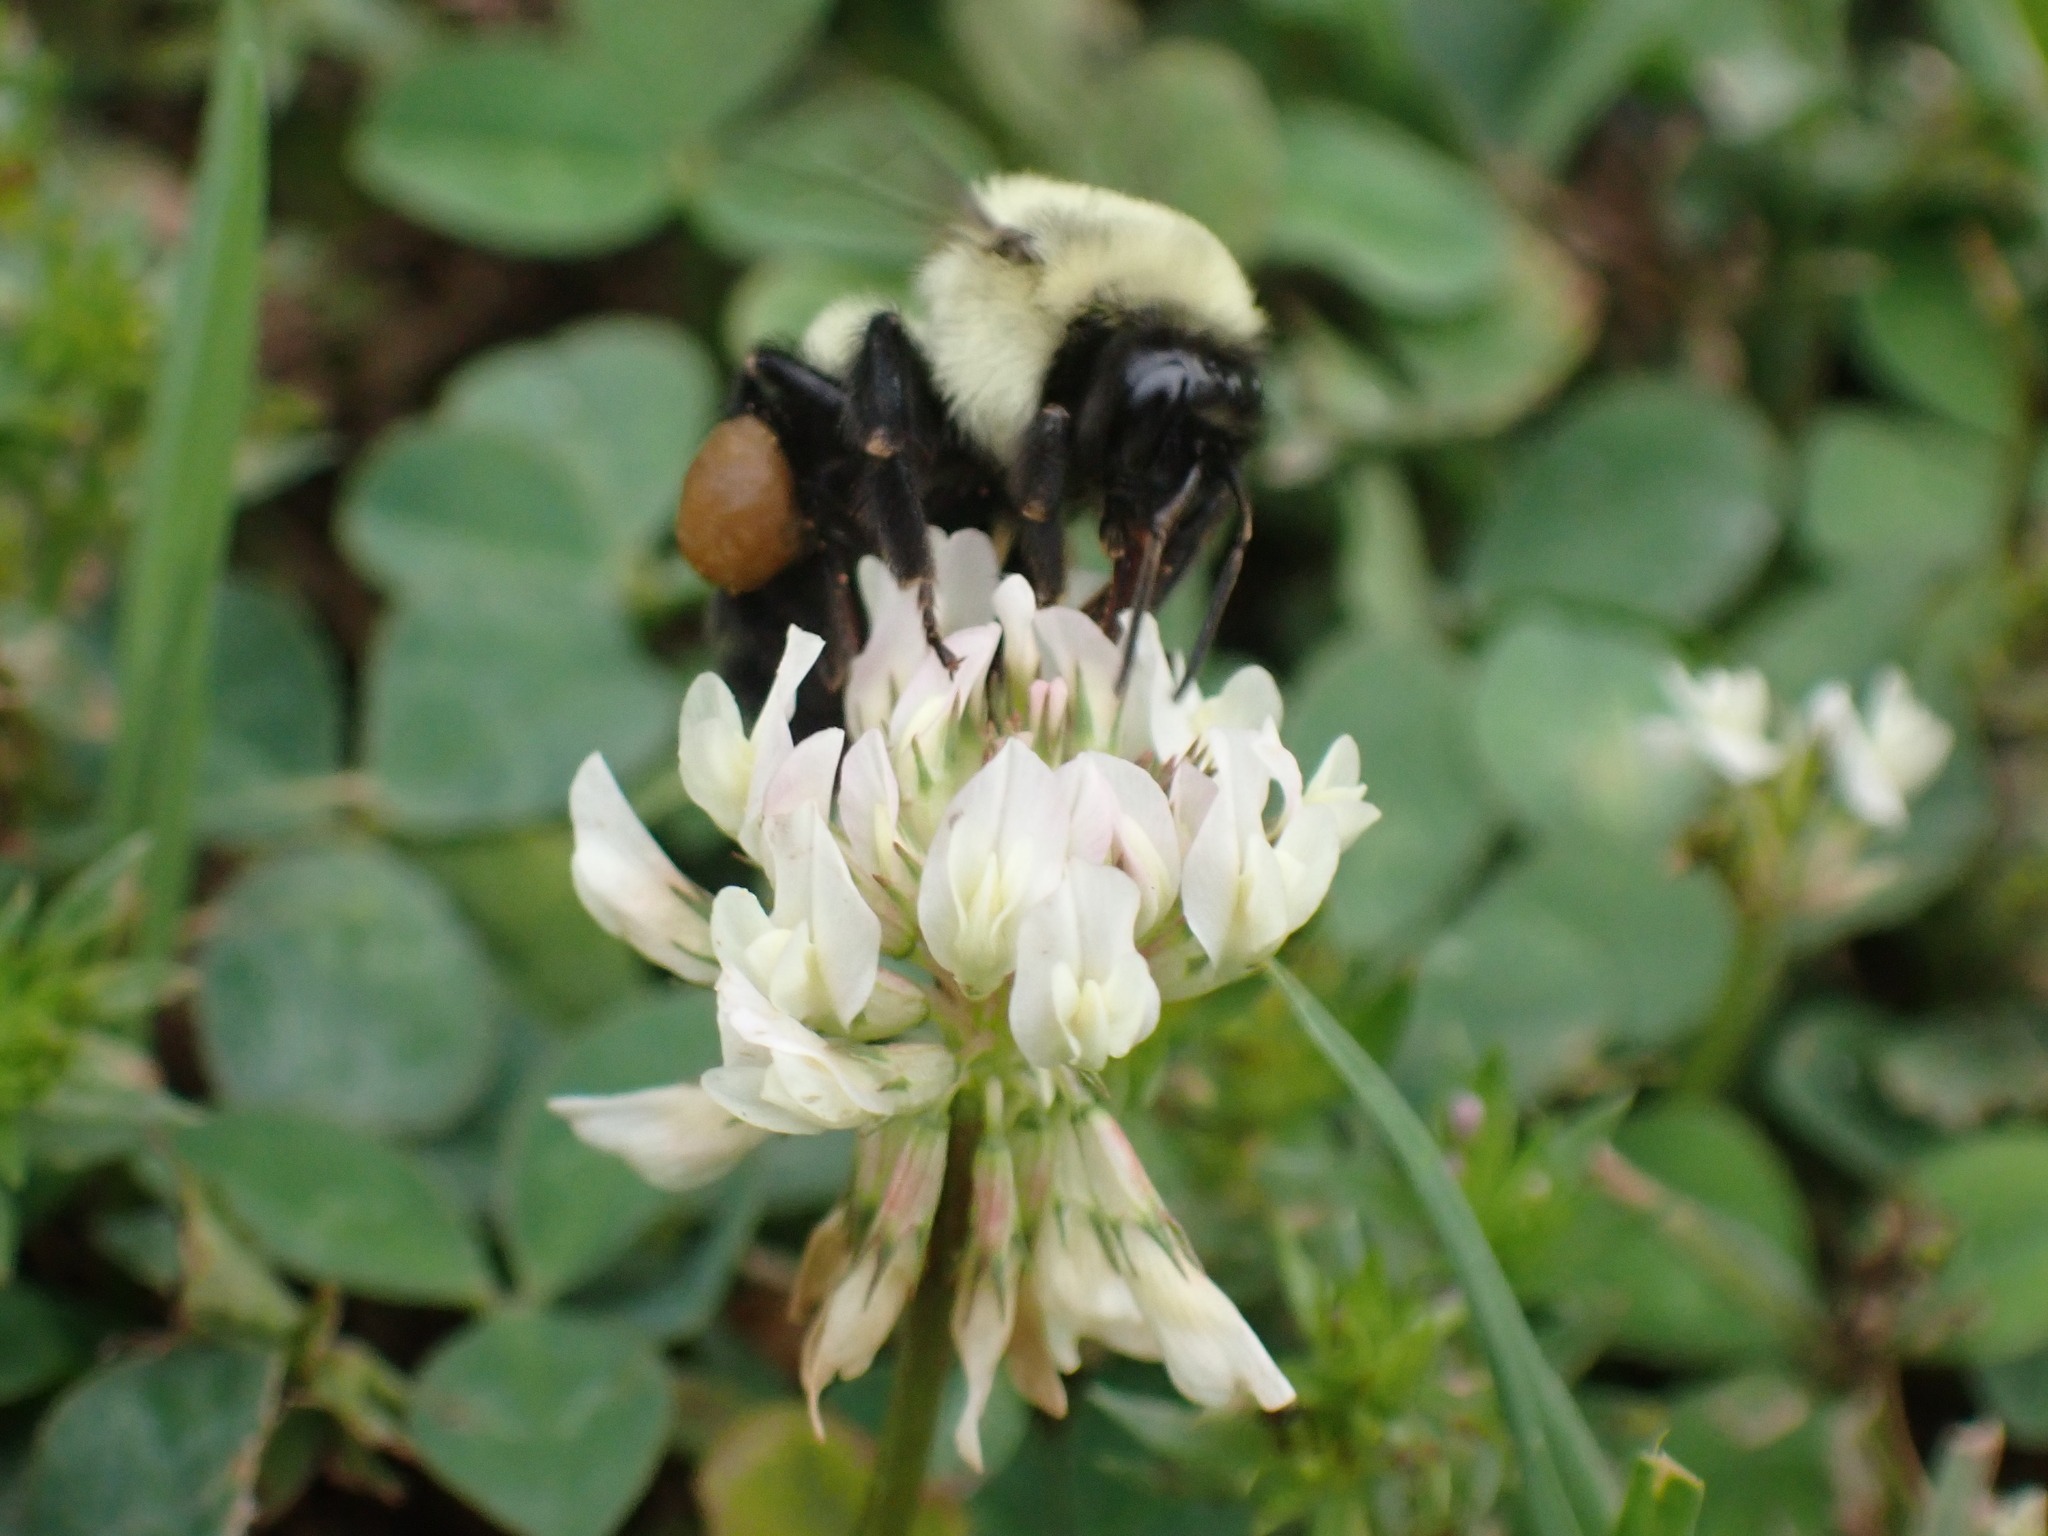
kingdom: Animalia
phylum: Arthropoda
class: Insecta
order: Hymenoptera
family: Apidae
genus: Bombus
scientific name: Bombus impatiens
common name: Common eastern bumble bee
